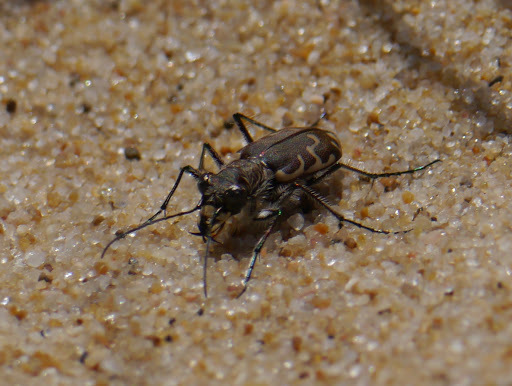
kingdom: Animalia
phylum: Arthropoda
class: Insecta
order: Coleoptera
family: Carabidae
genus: Cicindela
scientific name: Cicindela repanda
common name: Bronzed tiger beetle
